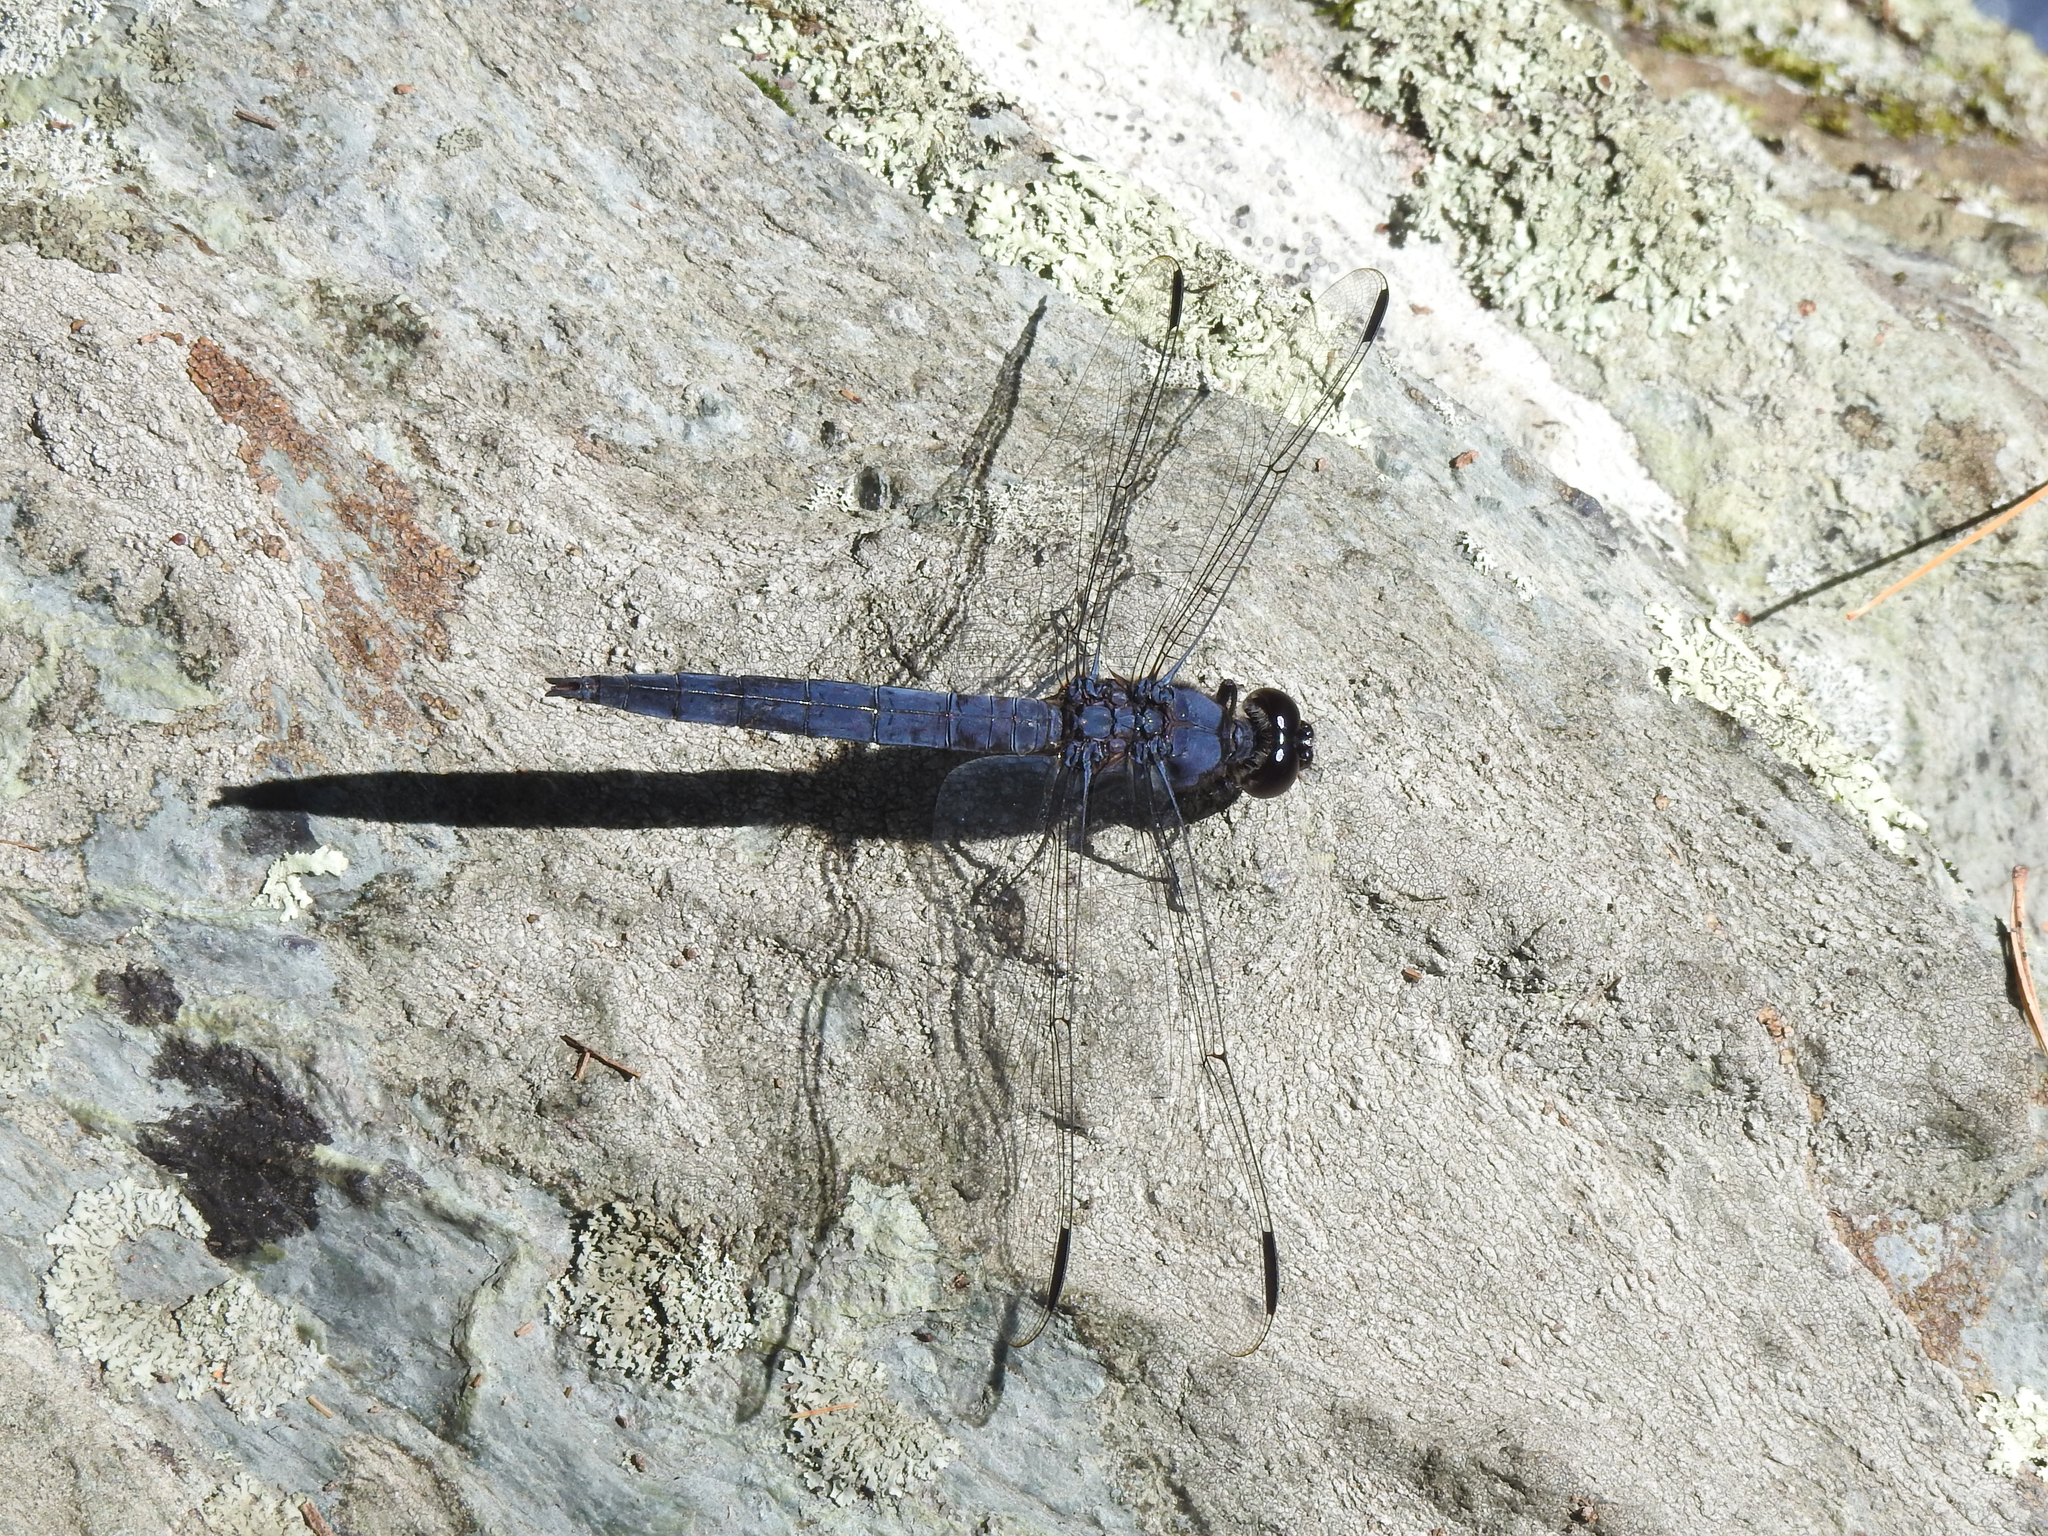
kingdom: Animalia
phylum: Arthropoda
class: Insecta
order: Odonata
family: Libellulidae
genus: Libellula
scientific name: Libellula incesta
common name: Slaty skimmer
